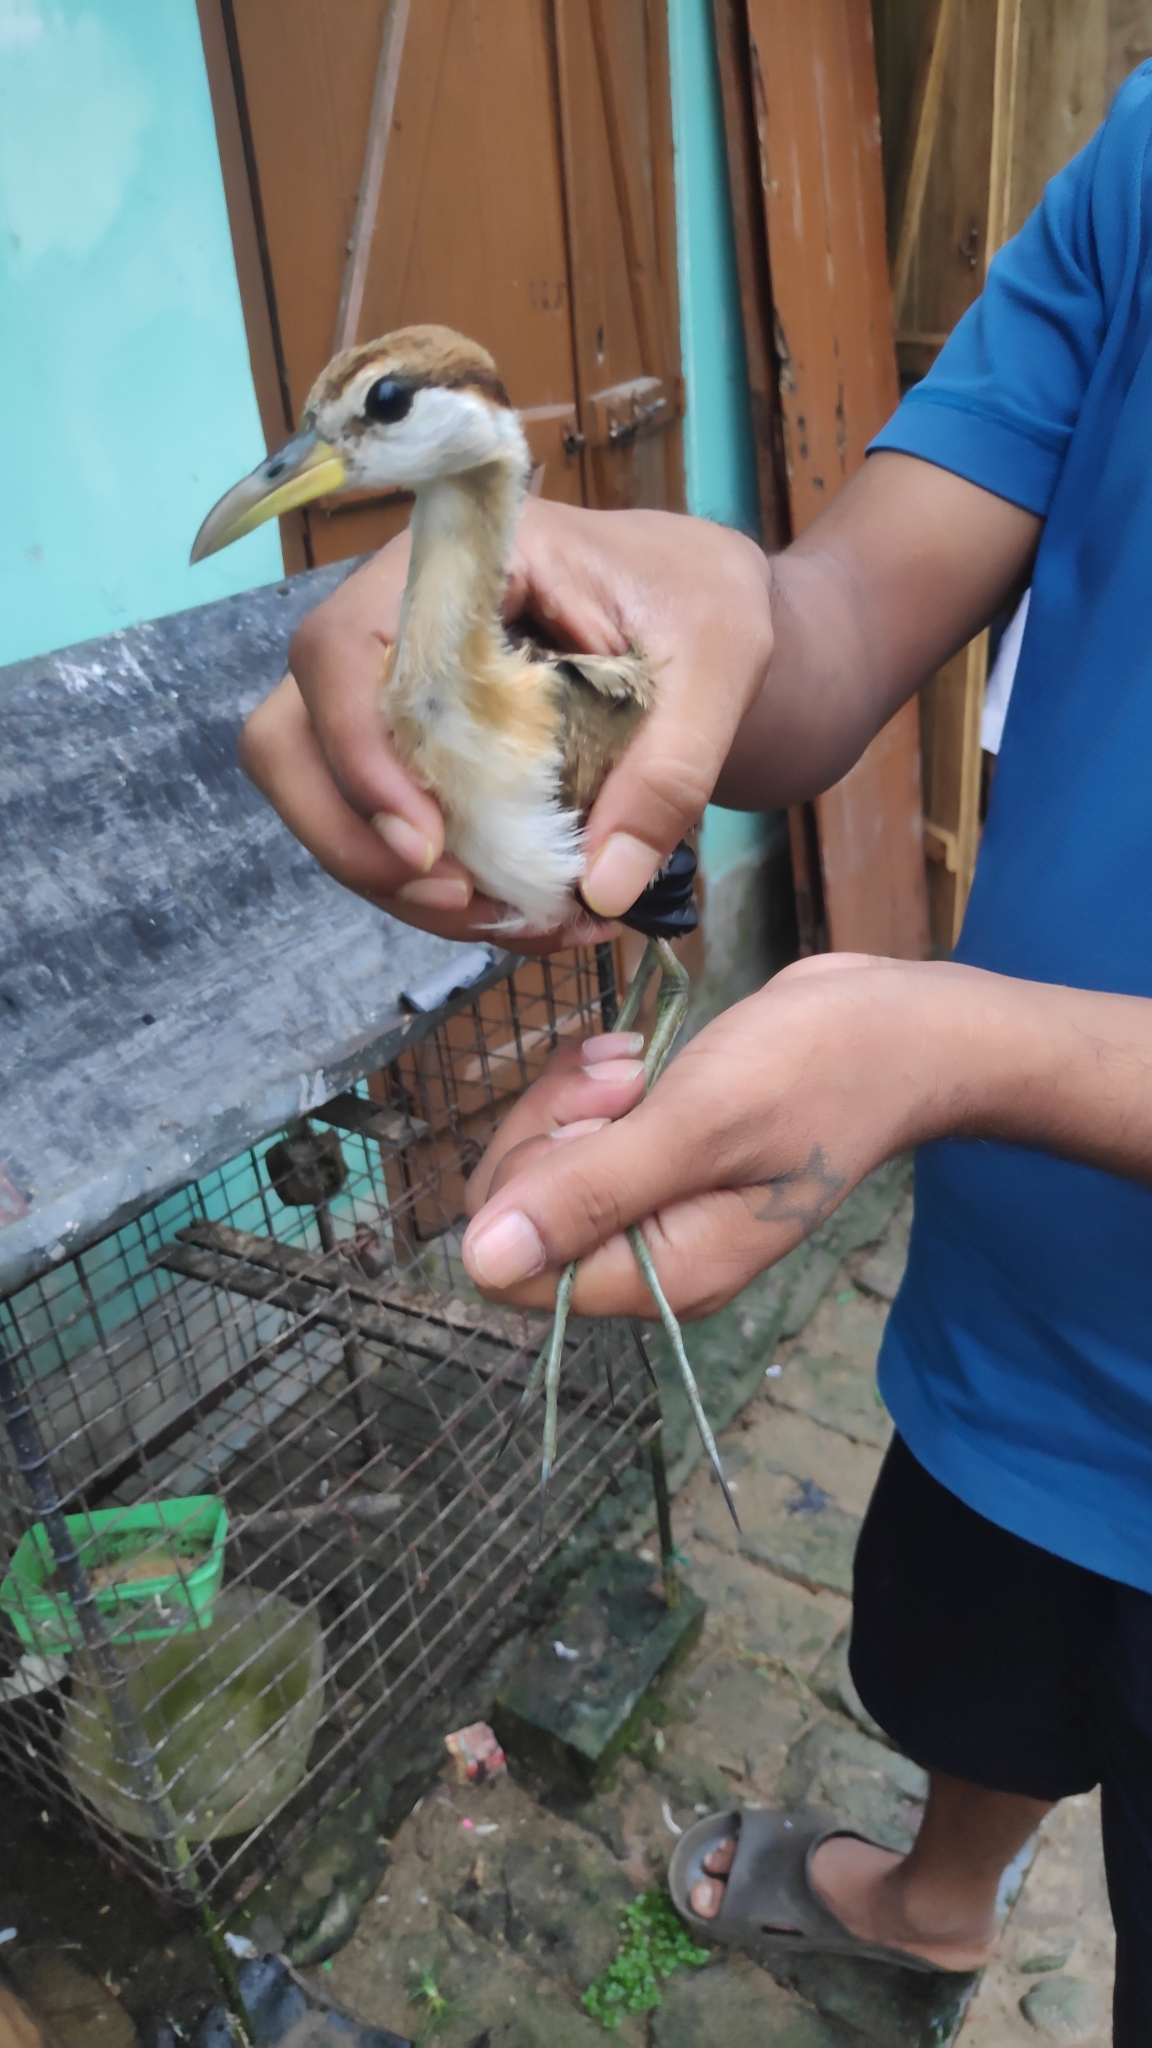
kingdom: Animalia
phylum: Chordata
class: Aves
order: Charadriiformes
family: Jacanidae
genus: Metopidius
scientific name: Metopidius indicus
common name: Bronze-winged jacana
